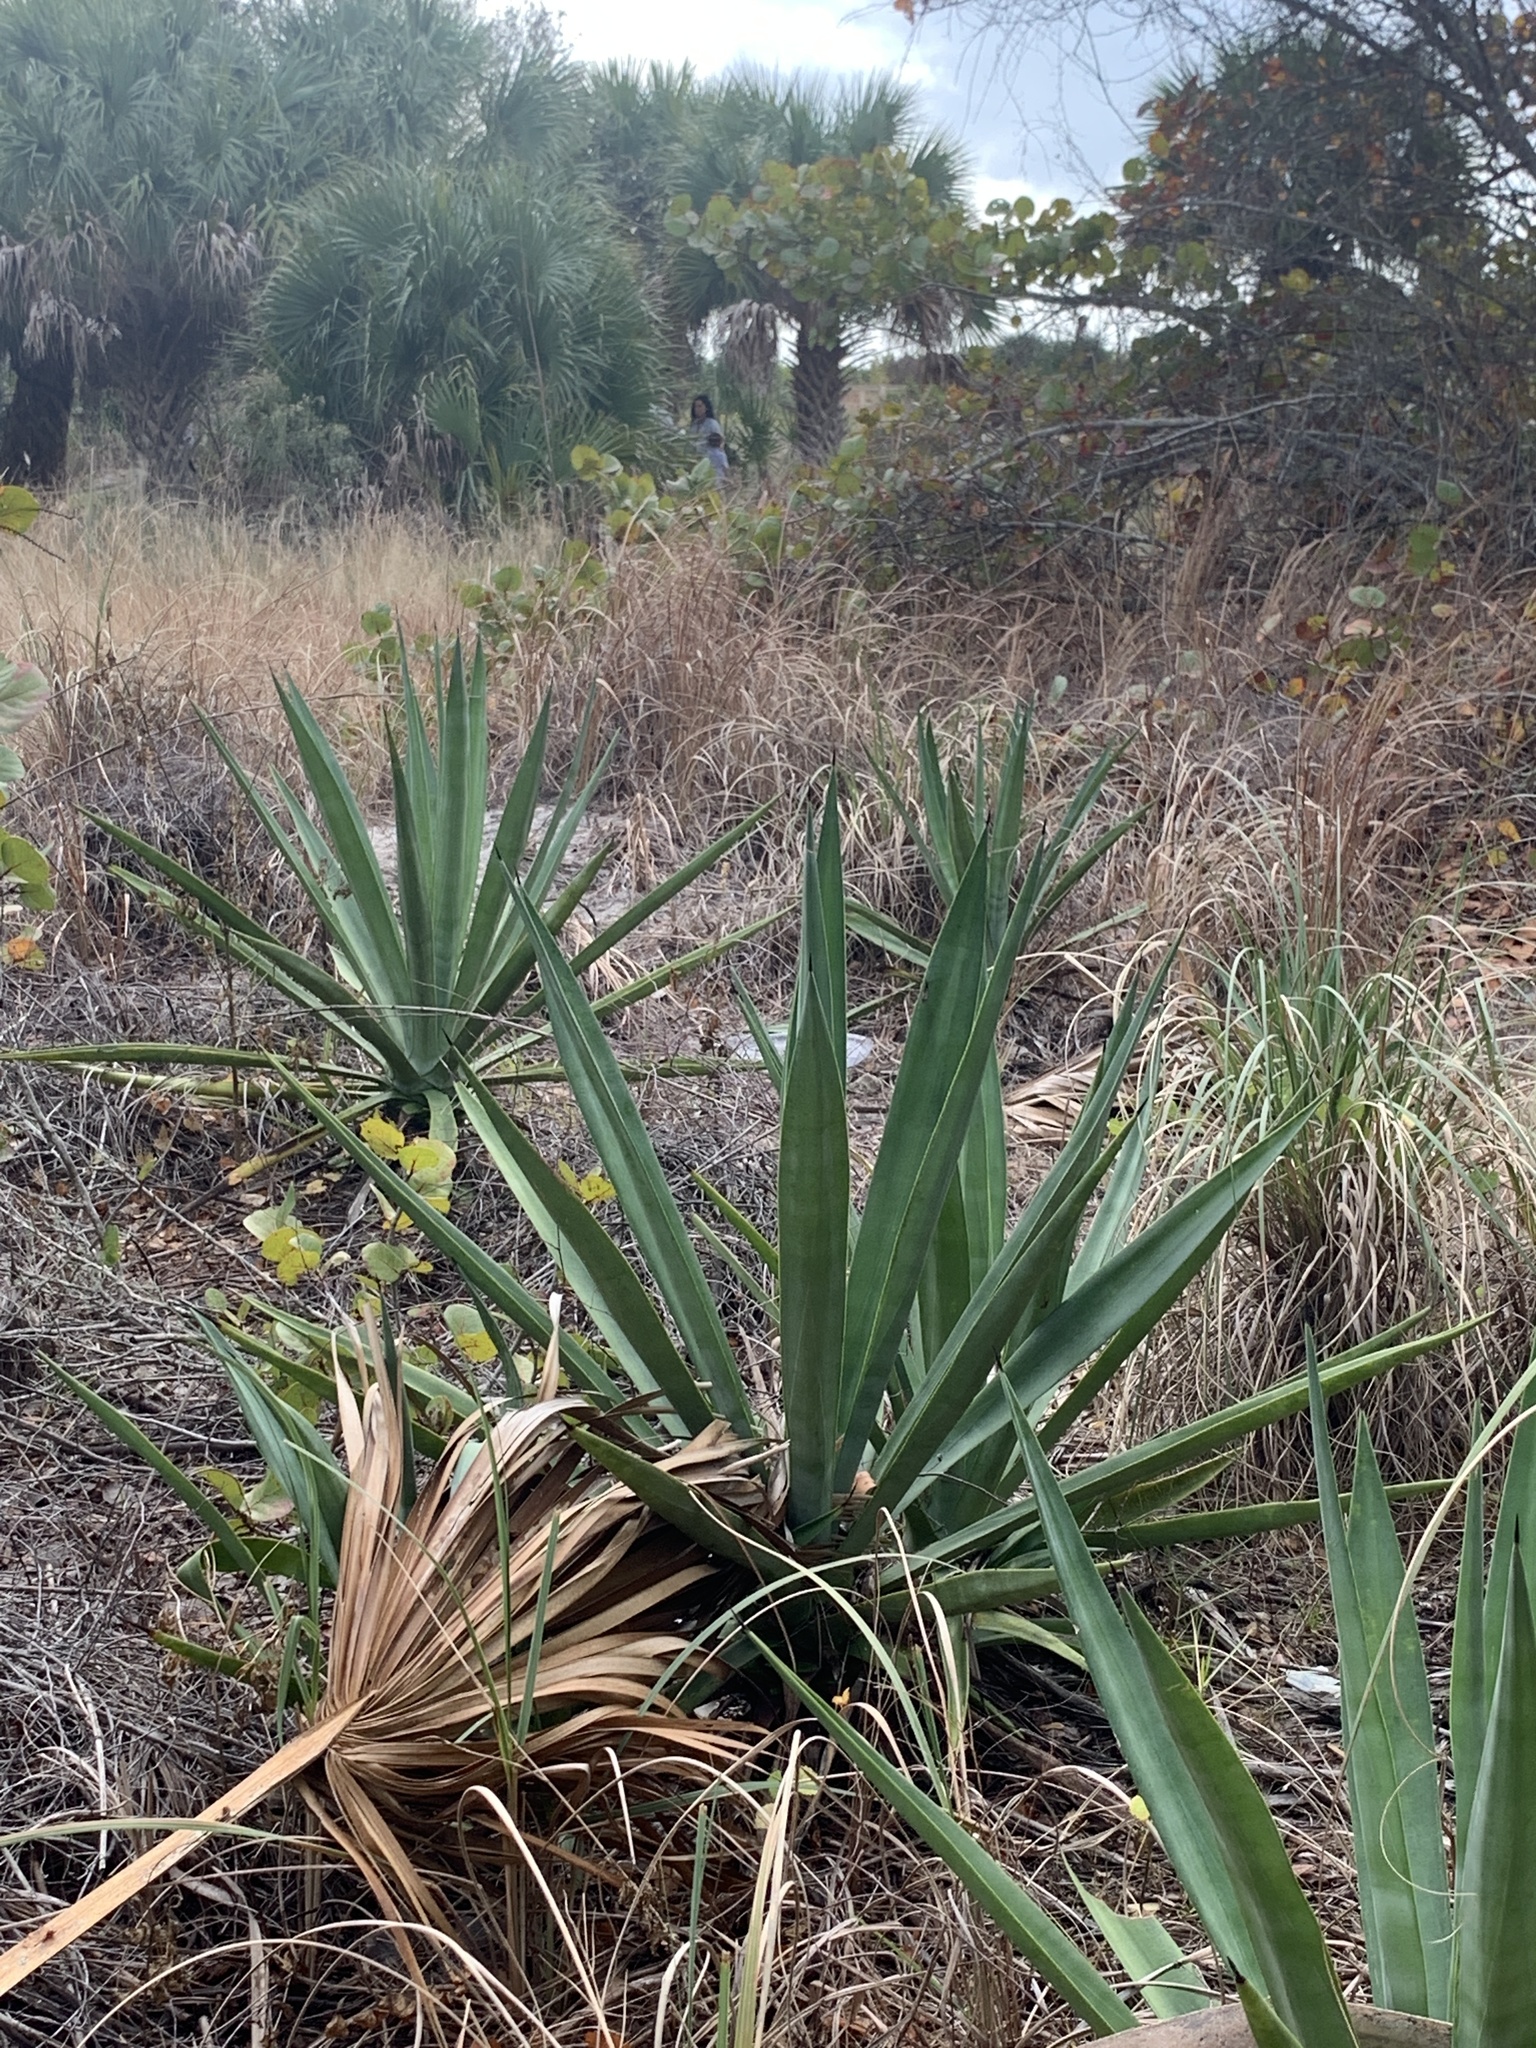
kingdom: Plantae
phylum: Tracheophyta
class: Liliopsida
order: Asparagales
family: Asparagaceae
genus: Agave
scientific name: Agave sisalana
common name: Sisal hemp
